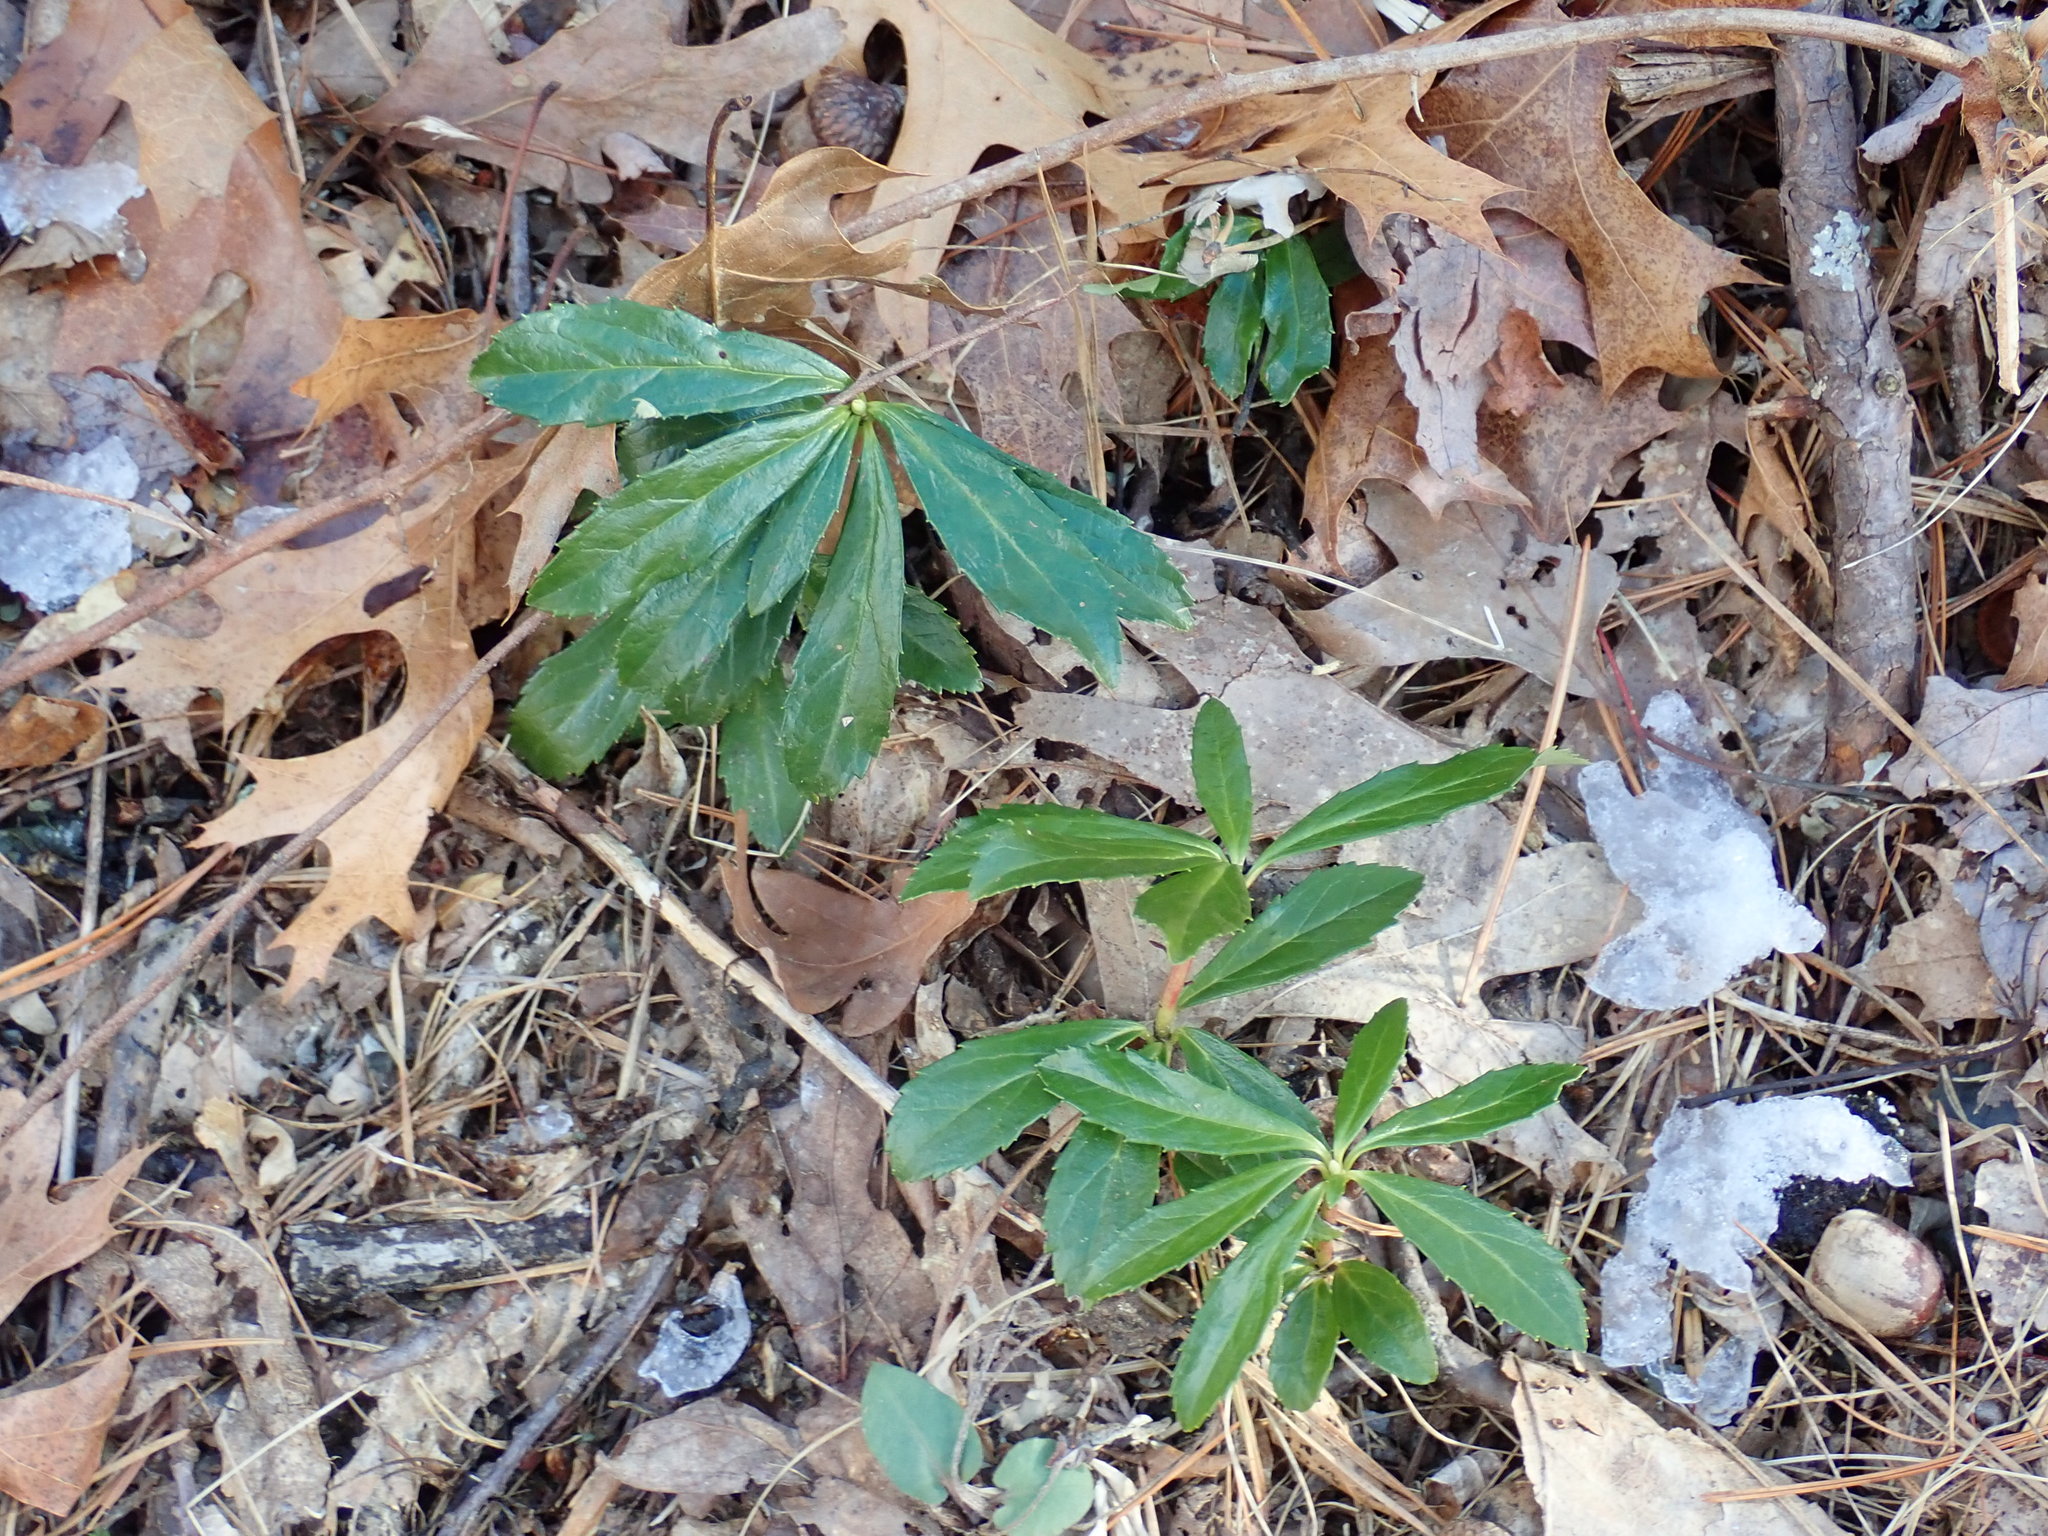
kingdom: Plantae
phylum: Tracheophyta
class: Magnoliopsida
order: Ericales
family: Ericaceae
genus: Chimaphila
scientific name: Chimaphila umbellata
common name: Pipsissewa
